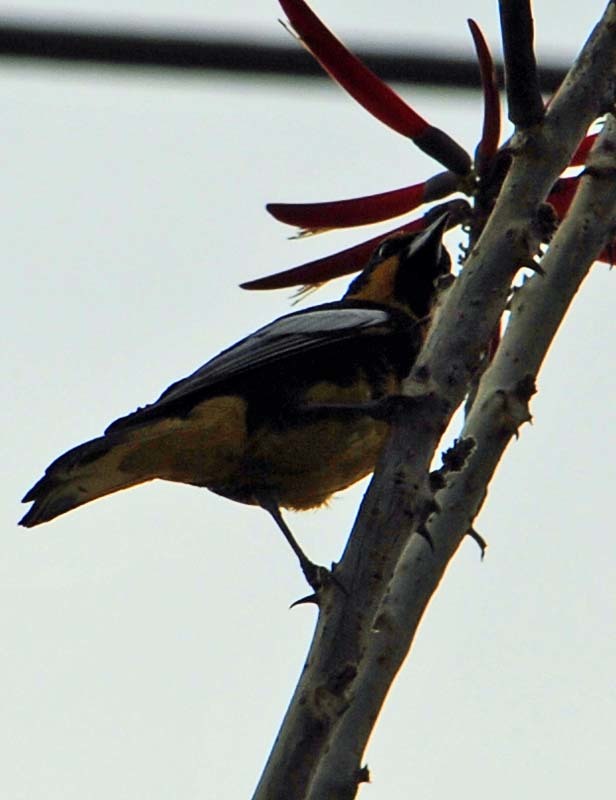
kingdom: Animalia
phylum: Chordata
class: Aves
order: Passeriformes
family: Icteridae
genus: Icterus
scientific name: Icterus abeillei
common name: Black-backed oriole
